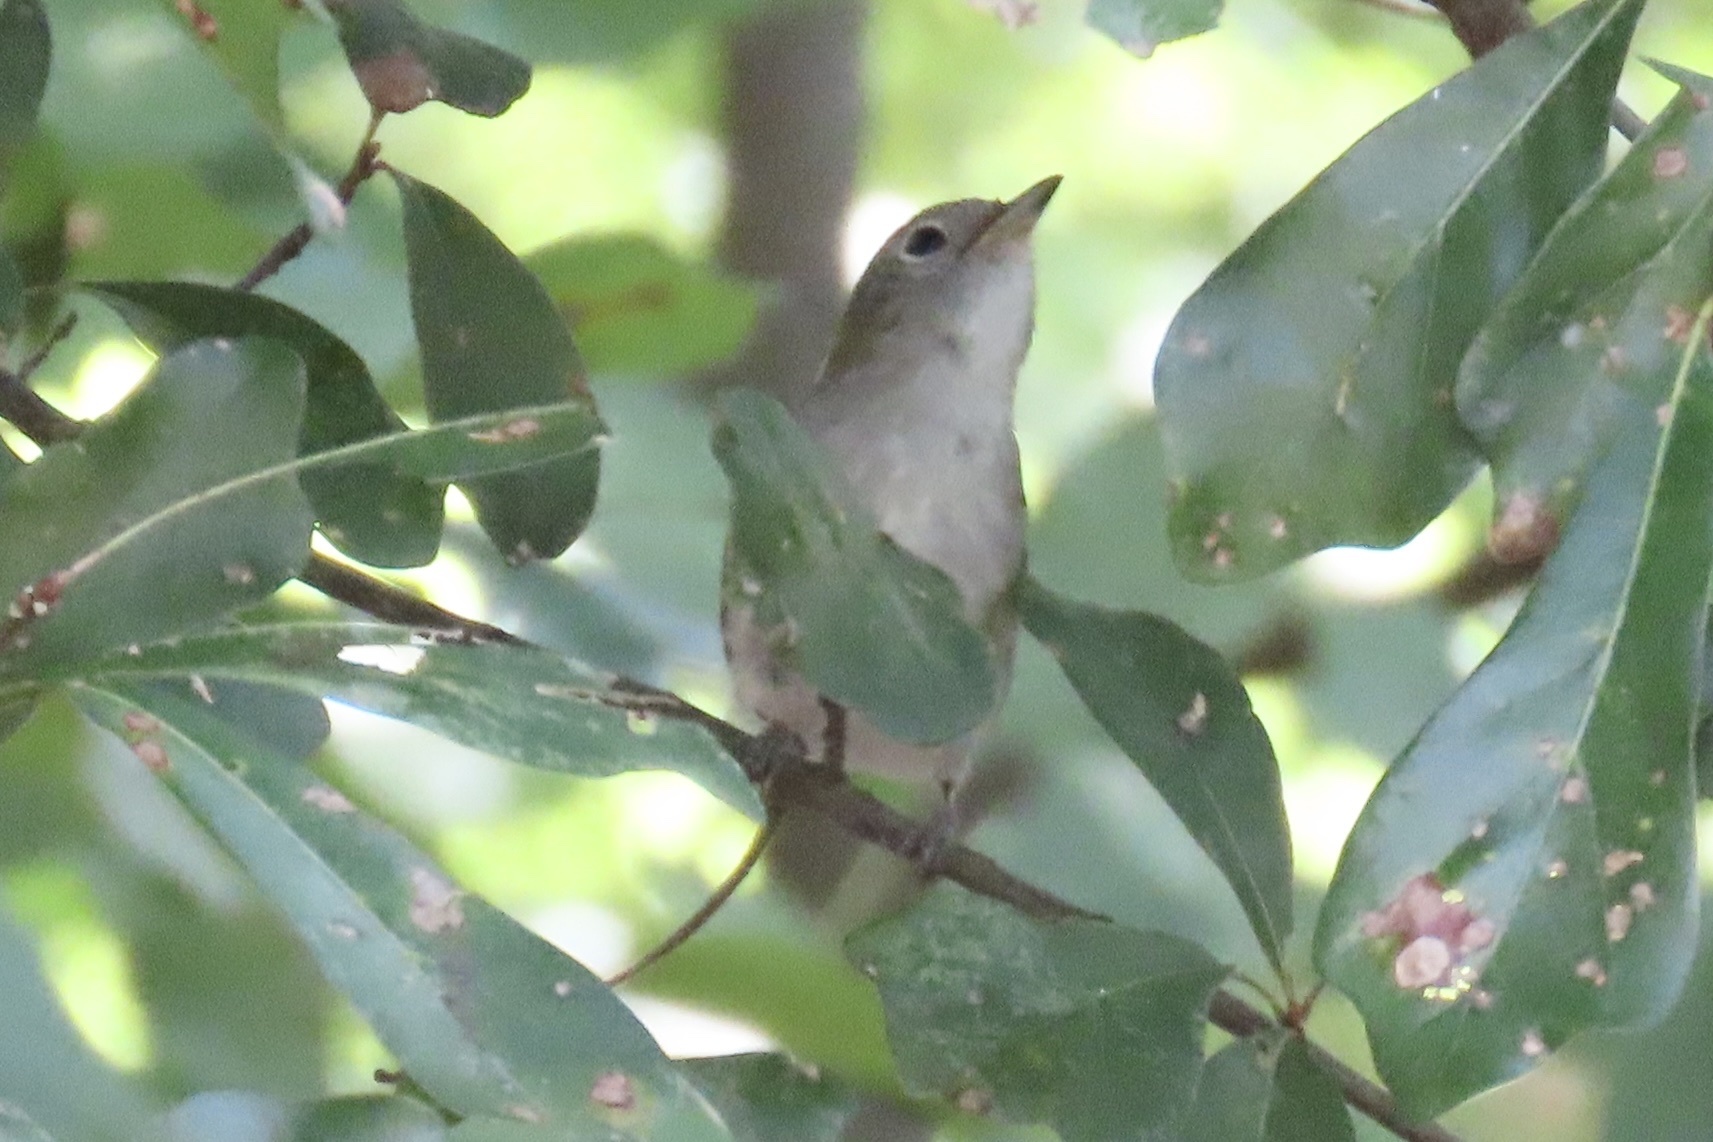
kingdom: Animalia
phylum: Chordata
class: Aves
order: Passeriformes
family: Parulidae
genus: Setophaga
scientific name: Setophaga pensylvanica
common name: Chestnut-sided warbler
